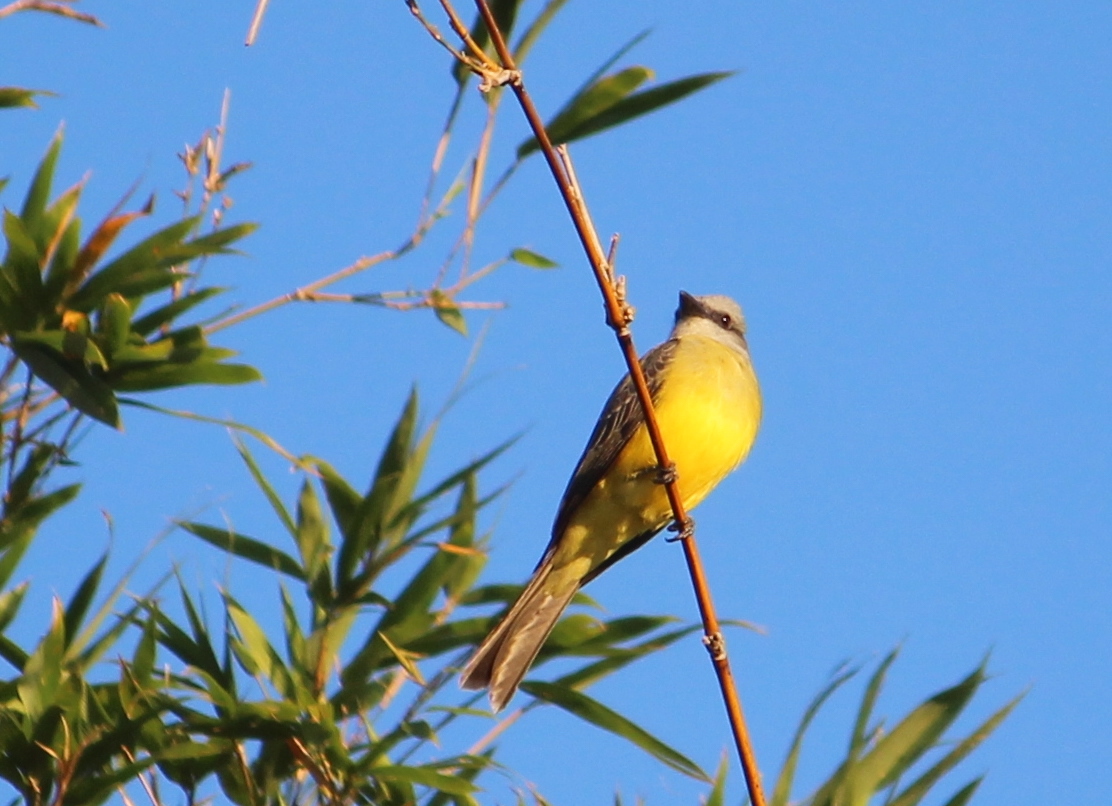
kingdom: Animalia
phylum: Chordata
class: Aves
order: Passeriformes
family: Tyrannidae
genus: Tyrannus
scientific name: Tyrannus melancholicus
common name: Tropical kingbird
